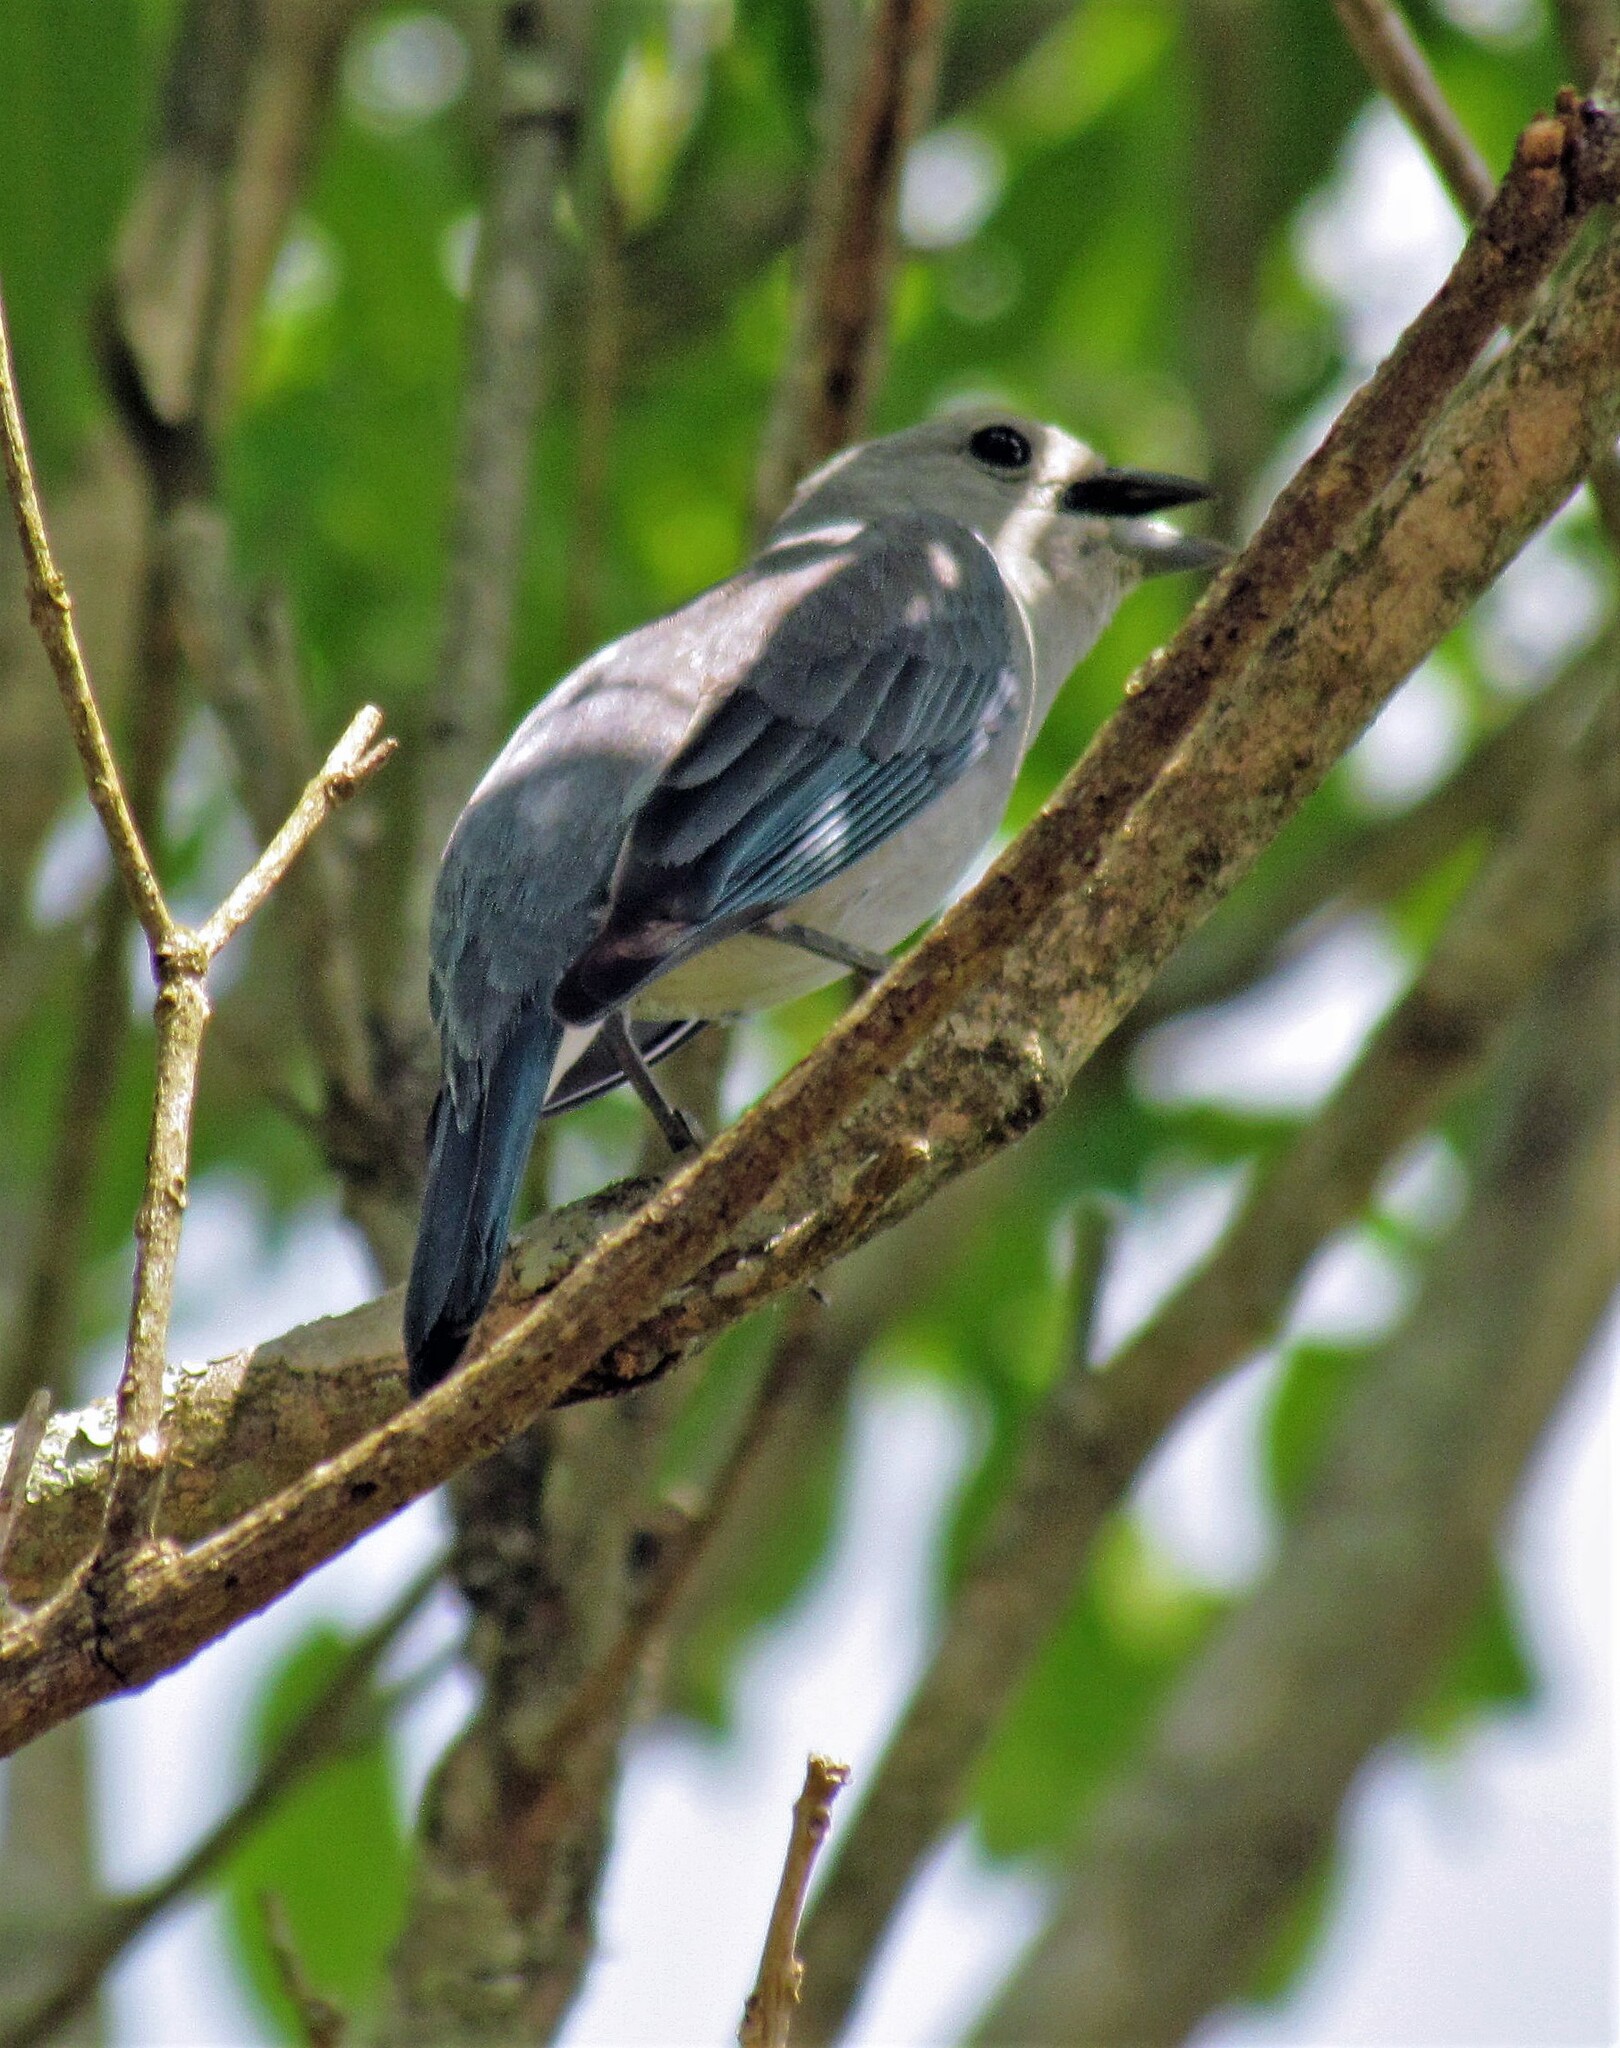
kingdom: Animalia
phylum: Chordata
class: Aves
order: Passeriformes
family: Thraupidae
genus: Thraupis
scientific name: Thraupis sayaca
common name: Sayaca tanager
